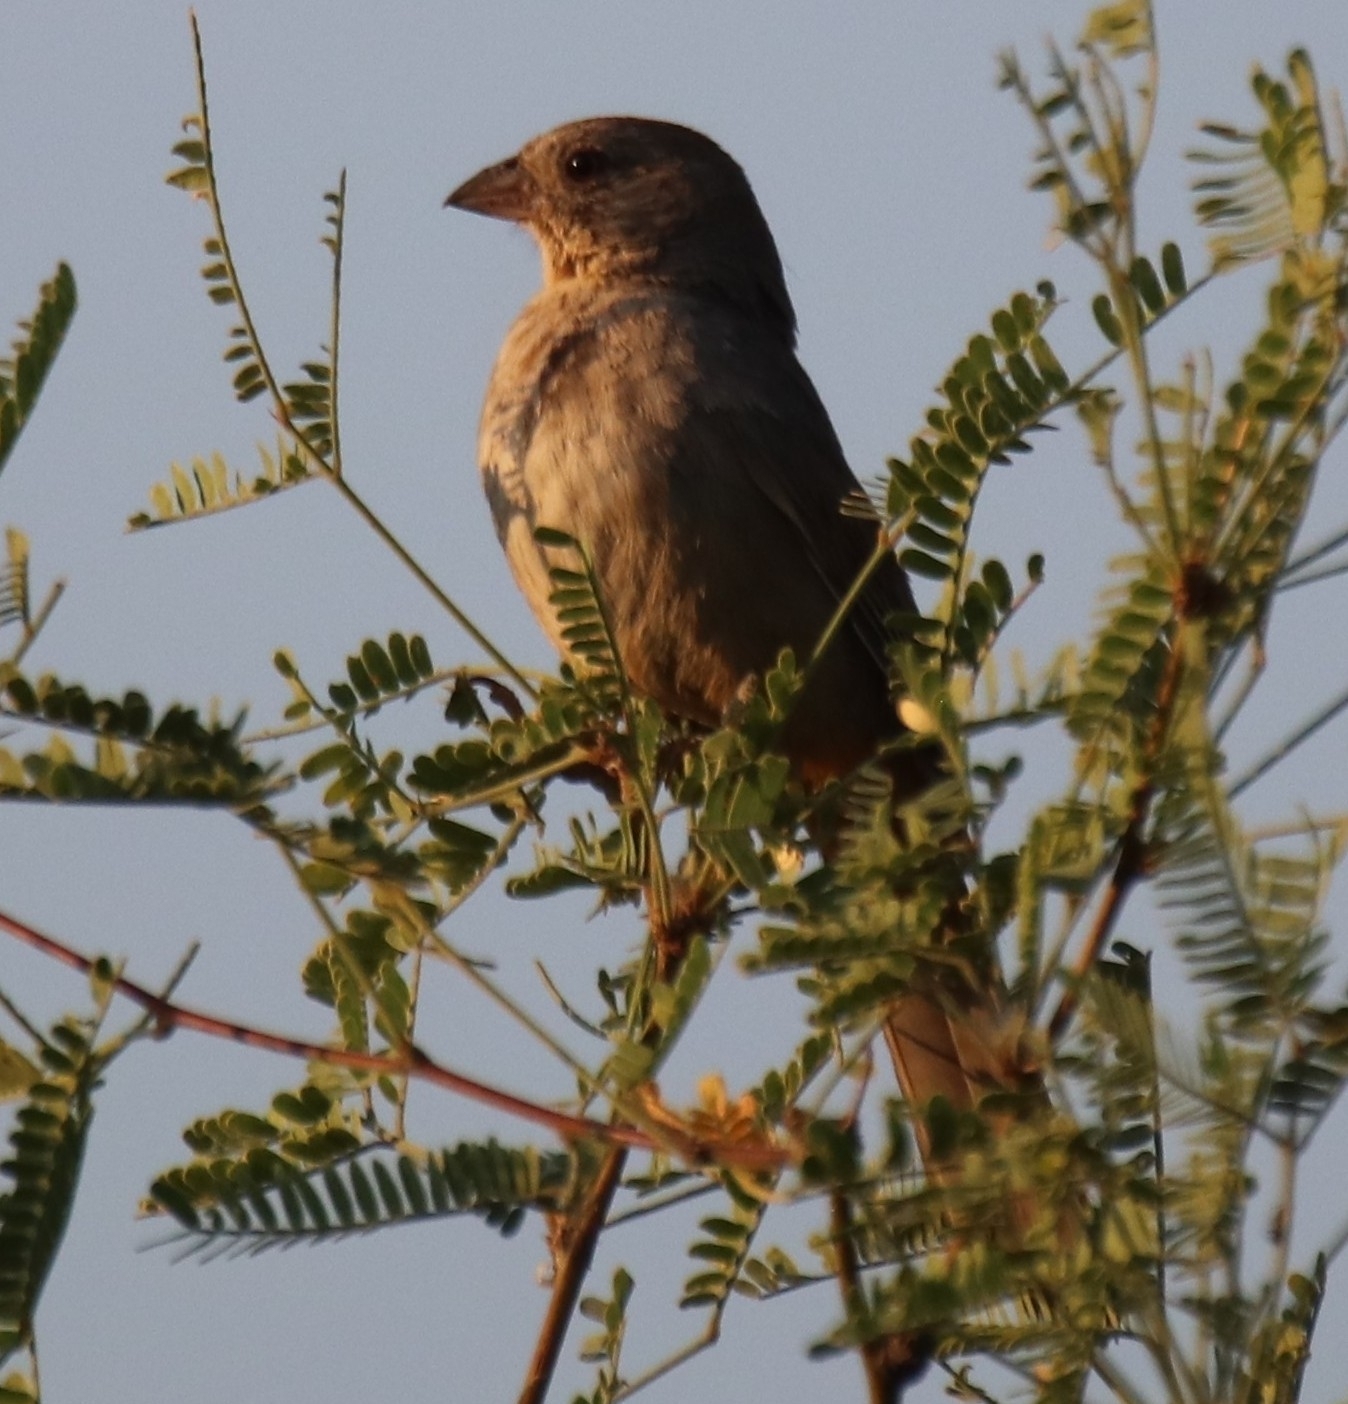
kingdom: Animalia
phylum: Chordata
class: Aves
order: Passeriformes
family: Passerellidae
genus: Melozone
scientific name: Melozone fusca
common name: Canyon towhee
